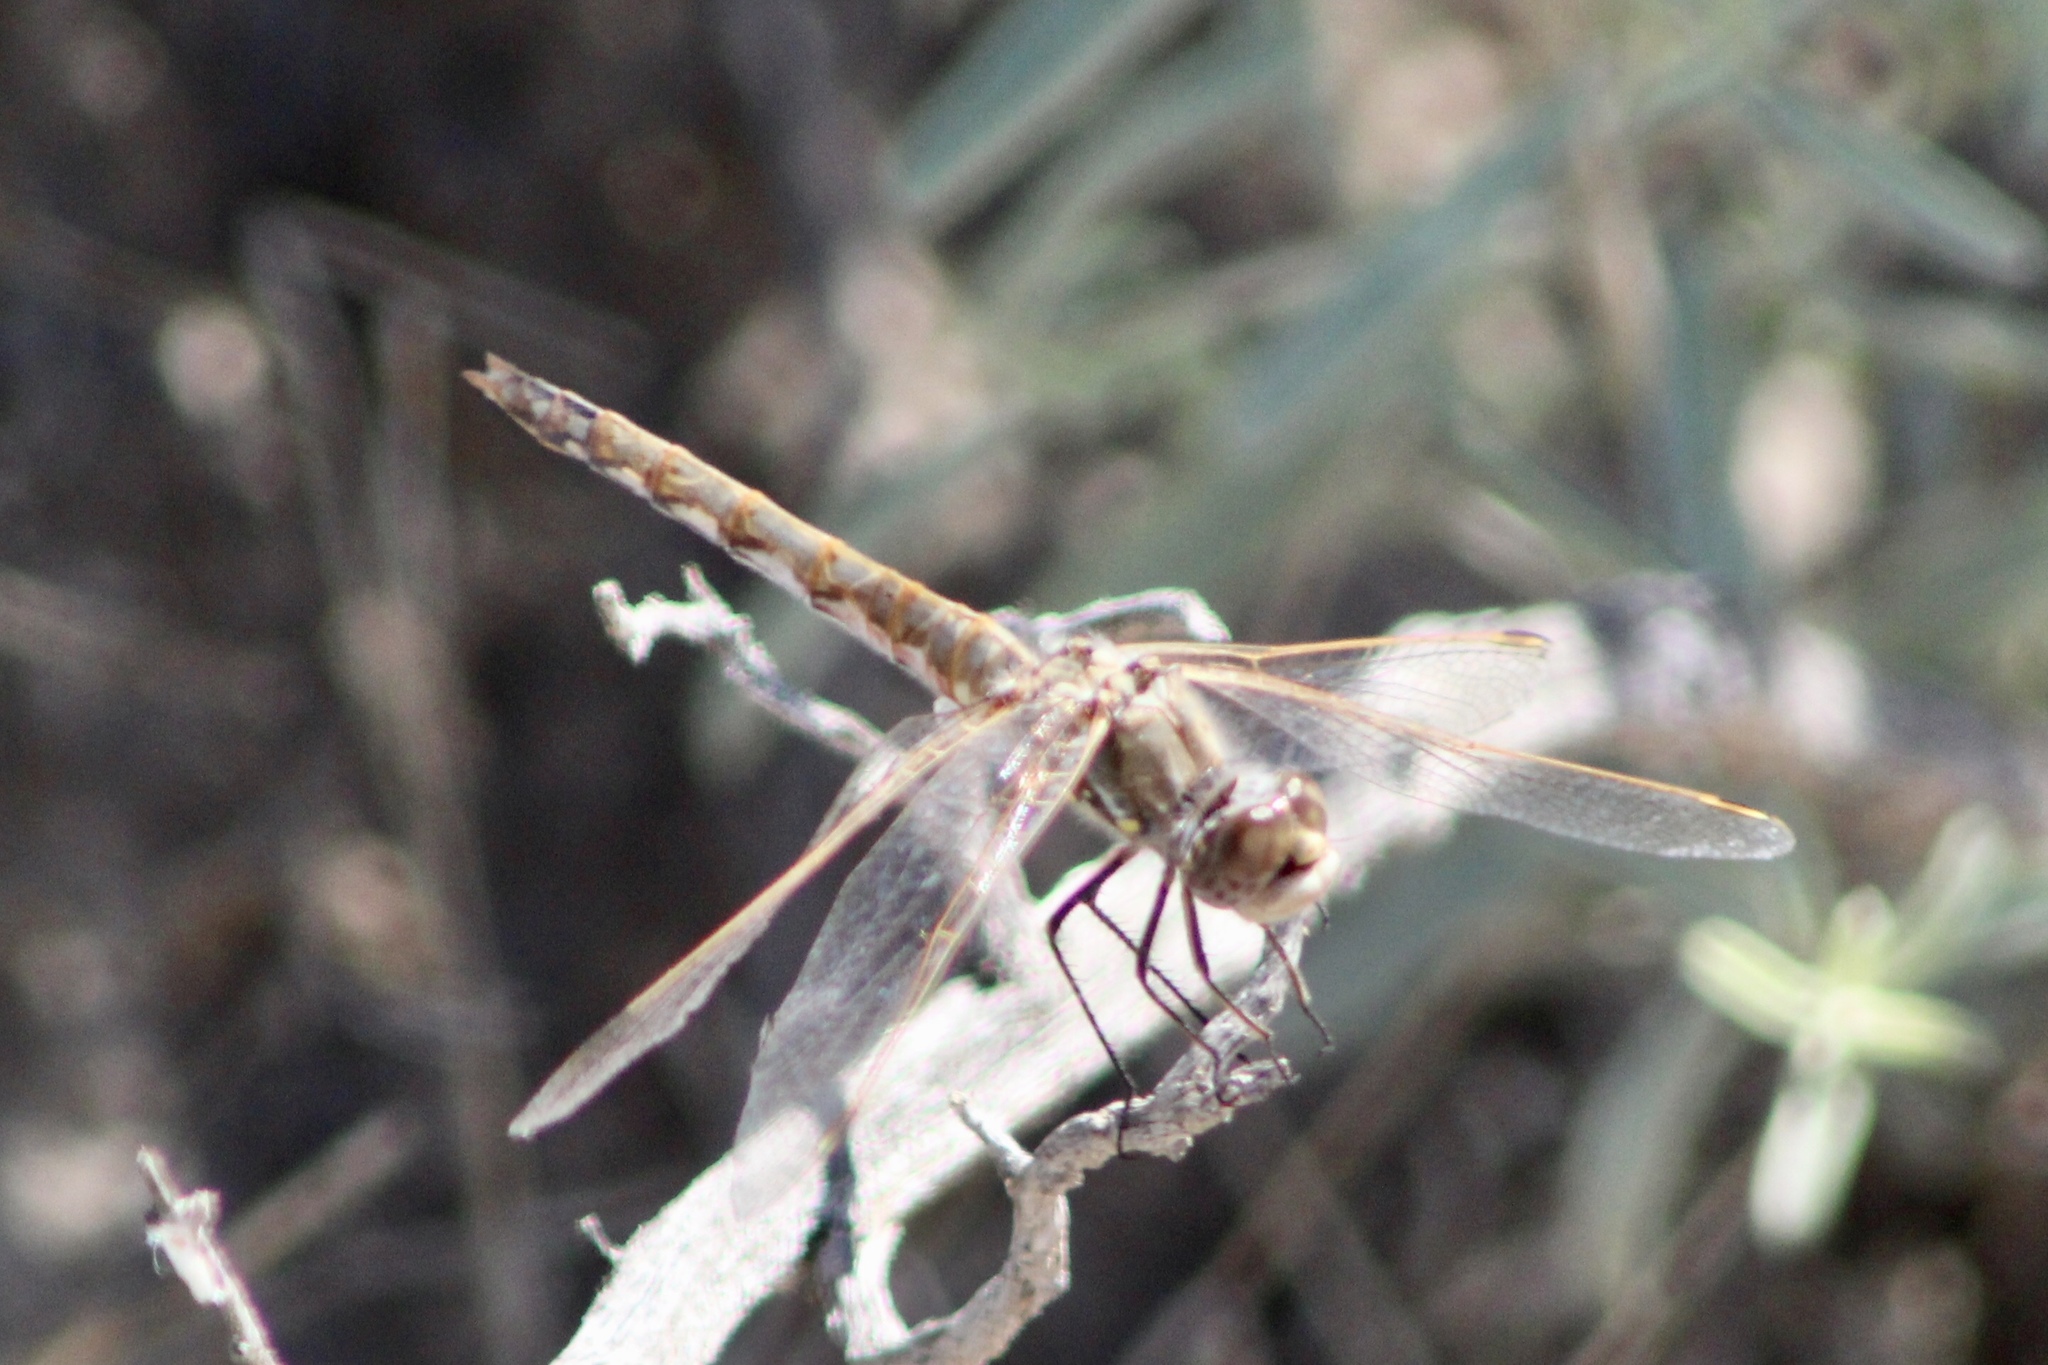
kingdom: Animalia
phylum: Arthropoda
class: Insecta
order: Odonata
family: Libellulidae
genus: Sympetrum
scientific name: Sympetrum corruptum
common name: Variegated meadowhawk
